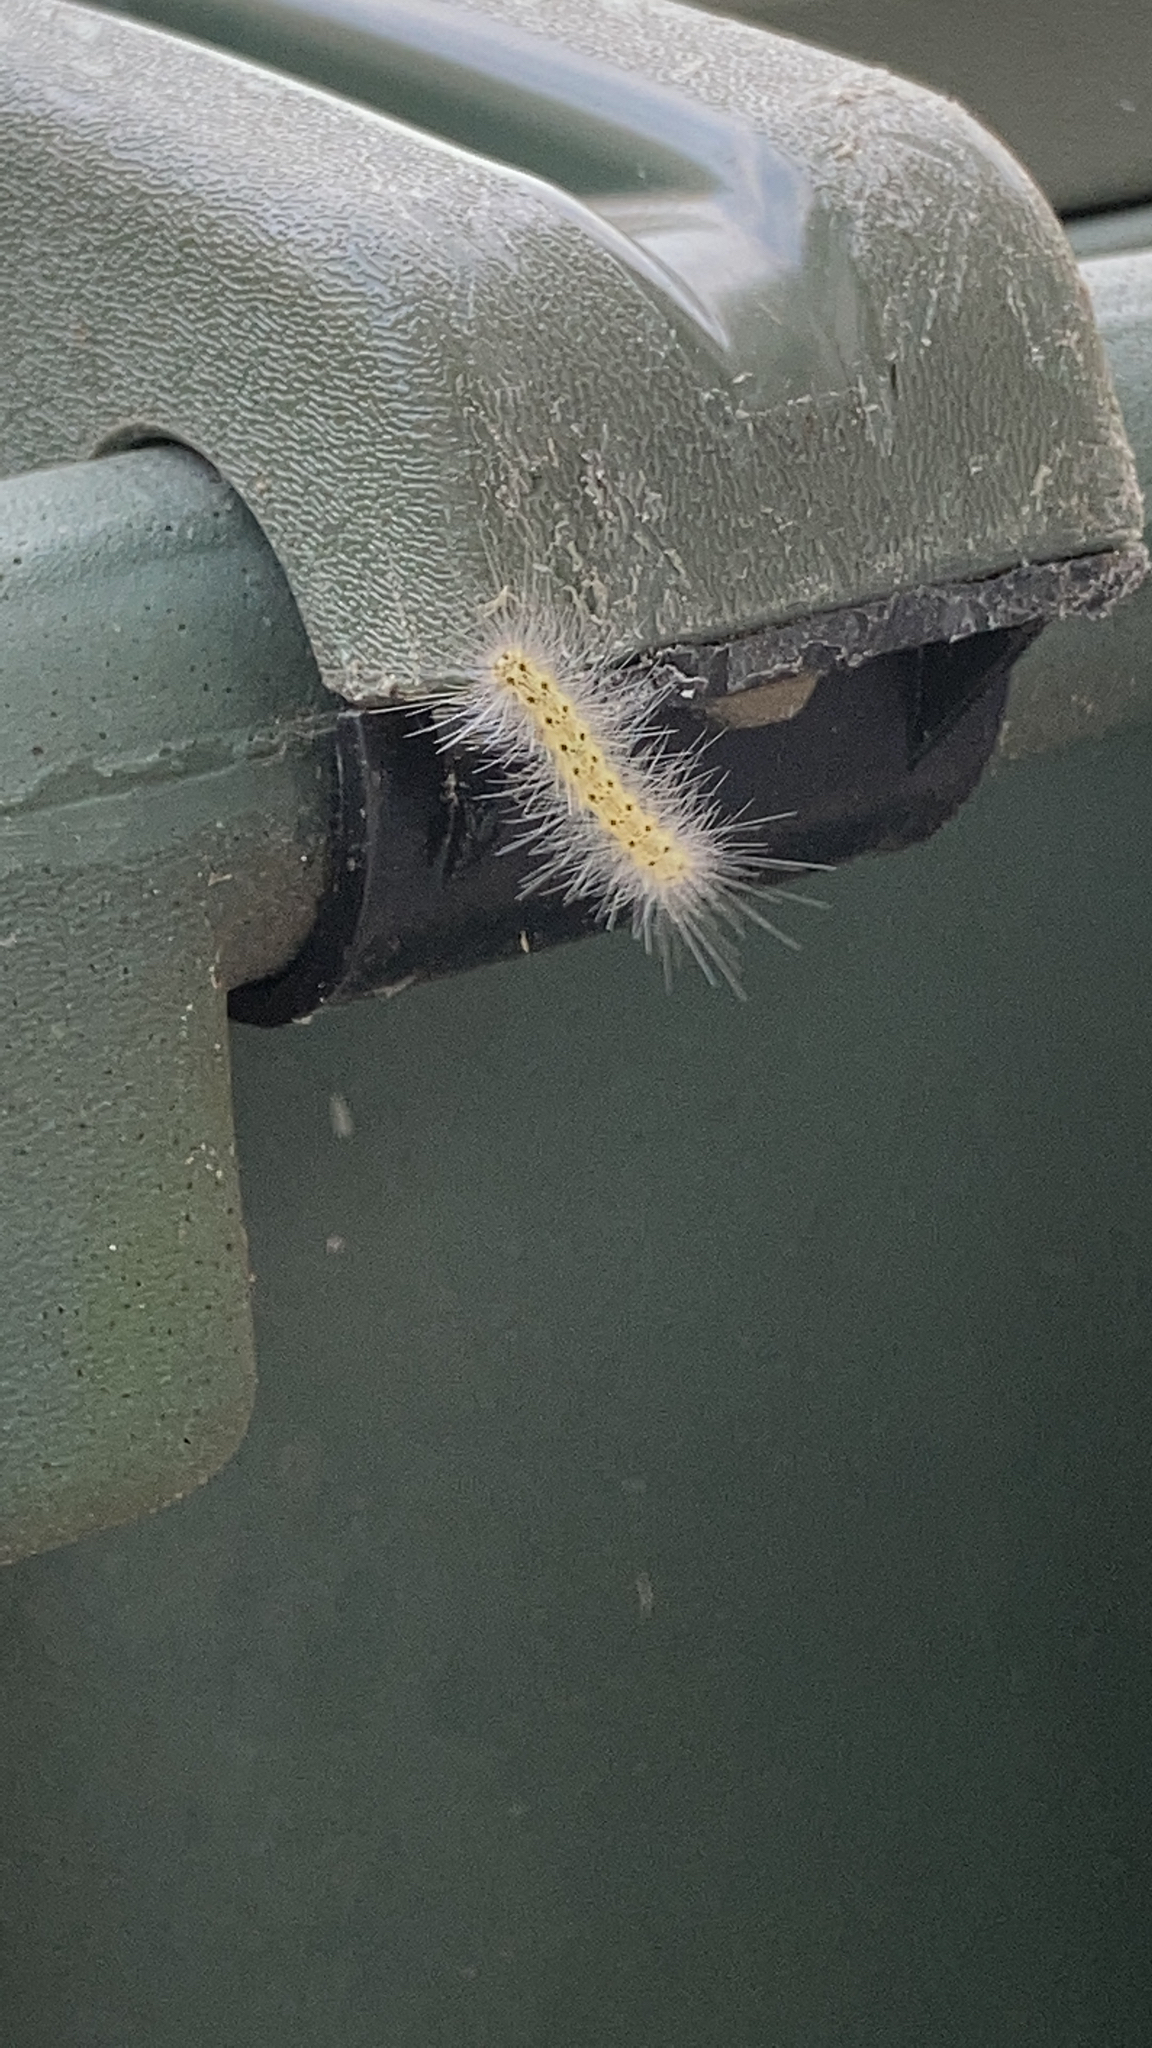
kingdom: Animalia
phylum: Arthropoda
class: Insecta
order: Lepidoptera
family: Erebidae
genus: Hyphantria
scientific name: Hyphantria cunea
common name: American white moth
